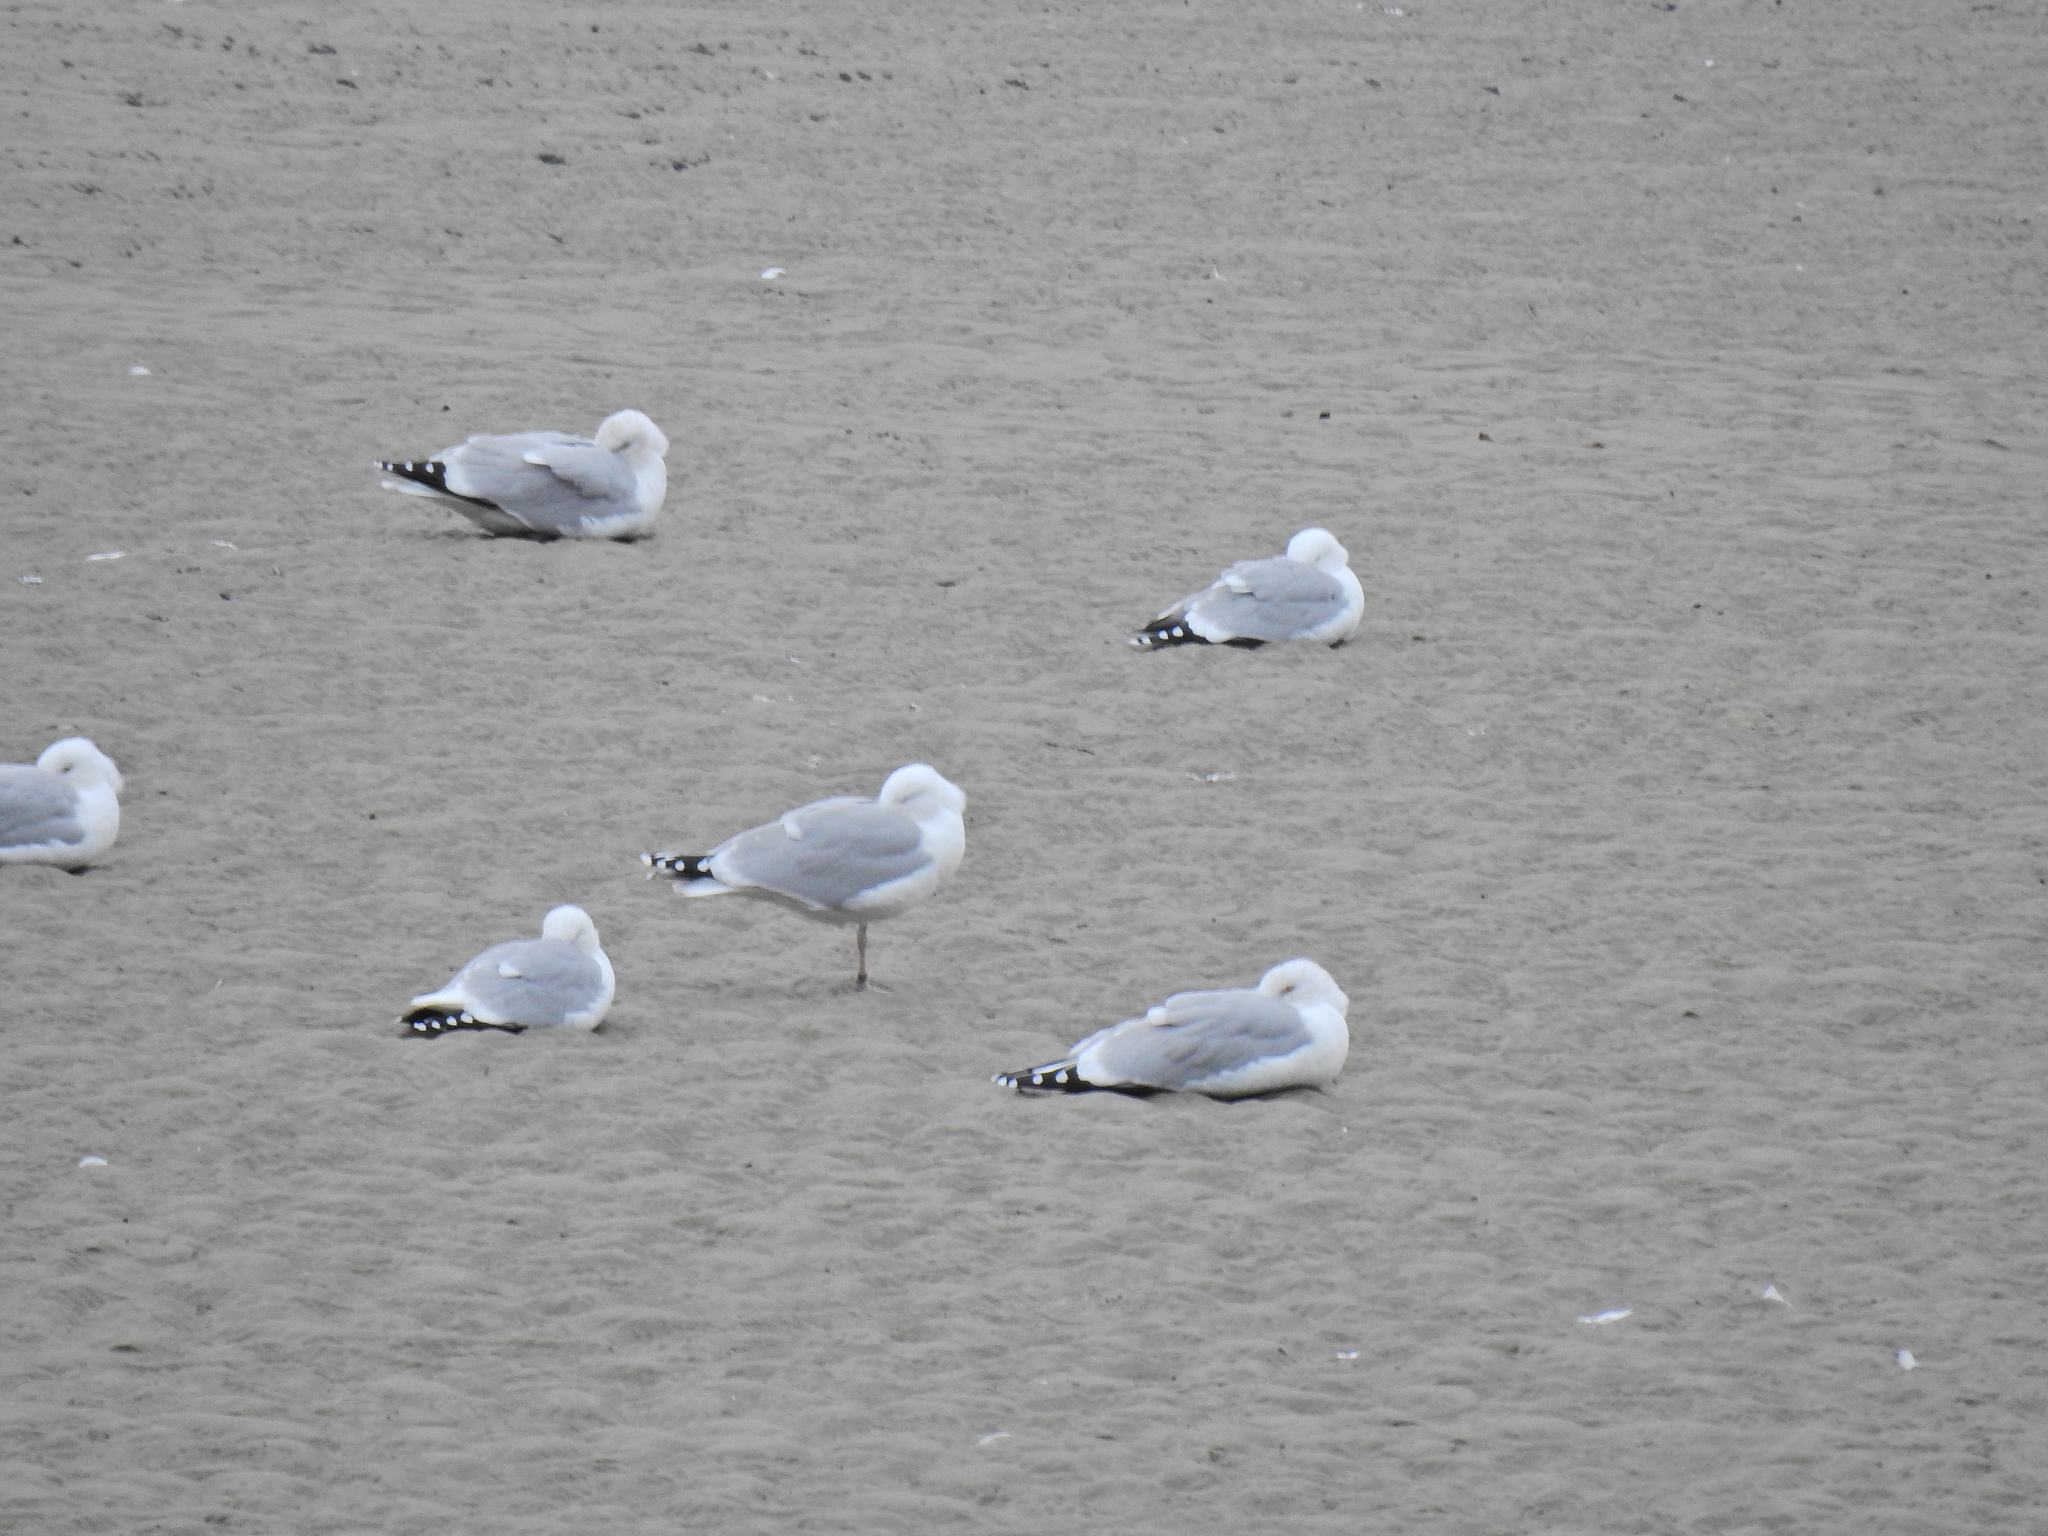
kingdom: Animalia
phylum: Chordata
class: Aves
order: Charadriiformes
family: Laridae
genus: Larus
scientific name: Larus argentatus
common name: Herring gull
